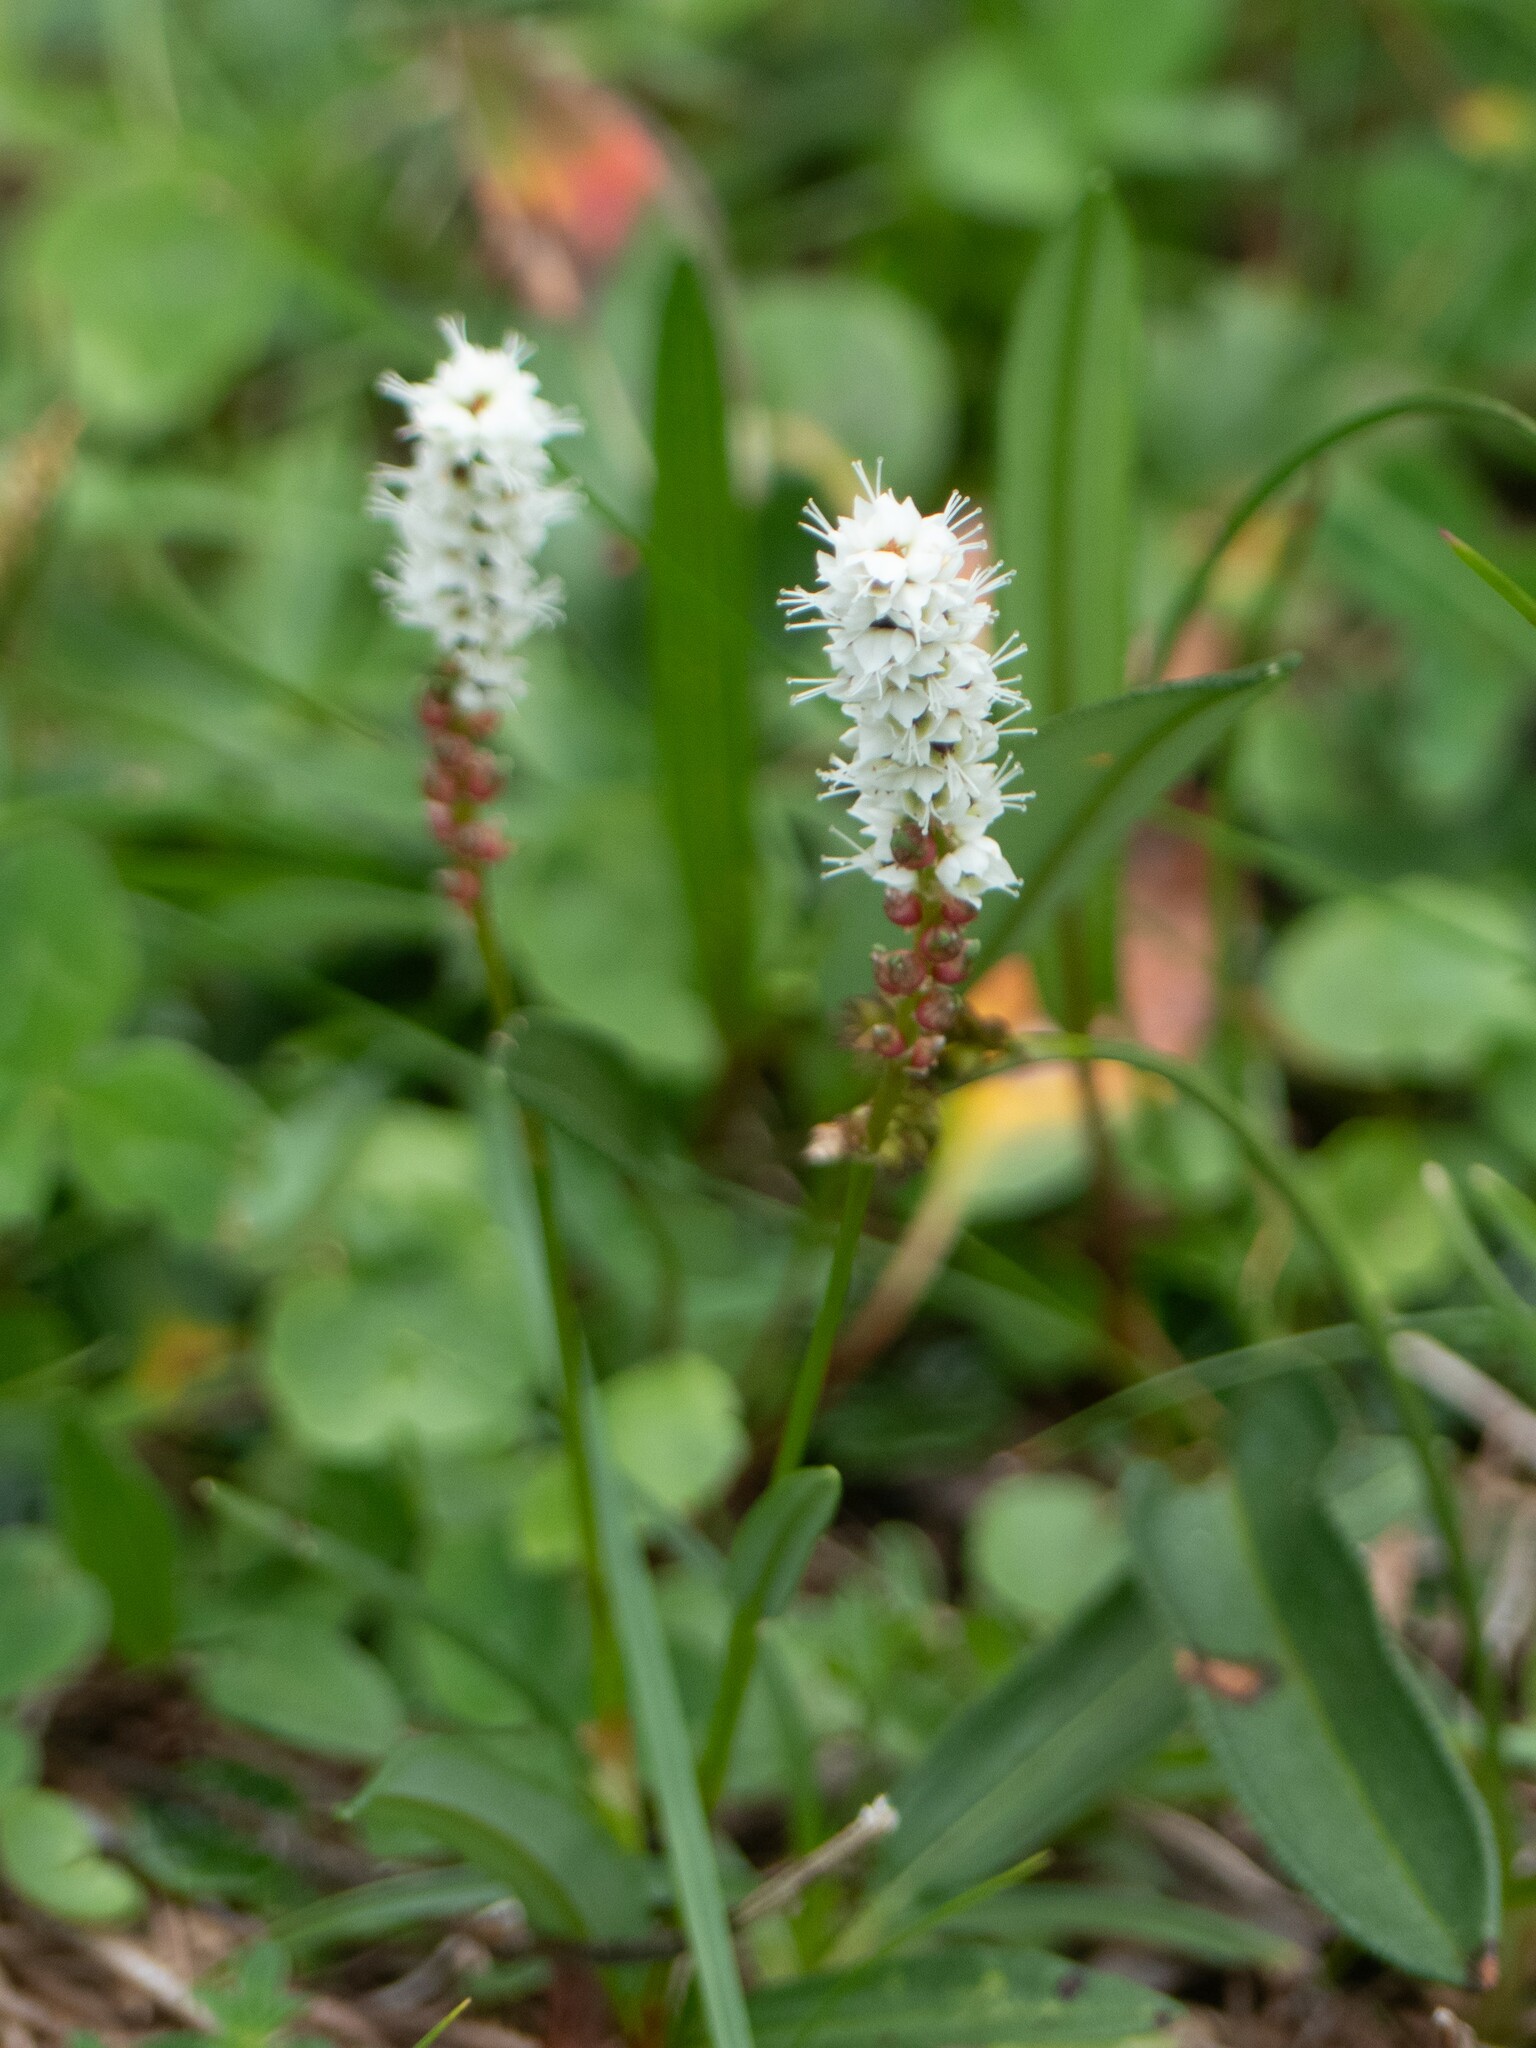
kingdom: Plantae
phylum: Tracheophyta
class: Magnoliopsida
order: Caryophyllales
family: Polygonaceae
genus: Bistorta
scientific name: Bistorta vivipara
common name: Alpine bistort
